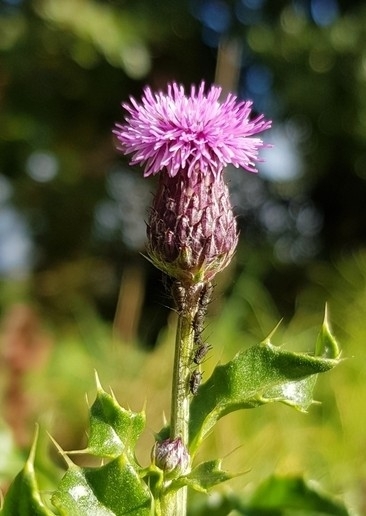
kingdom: Plantae
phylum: Tracheophyta
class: Magnoliopsida
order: Asterales
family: Asteraceae
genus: Cirsium
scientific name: Cirsium arvense
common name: Creeping thistle
